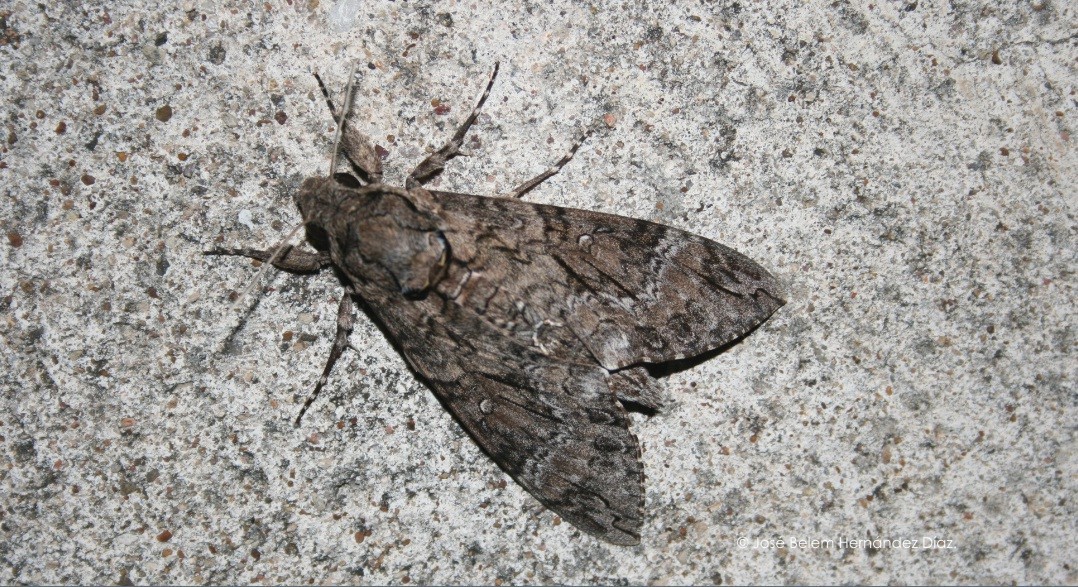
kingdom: Animalia
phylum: Arthropoda
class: Insecta
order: Lepidoptera
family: Sphingidae
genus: Agrius
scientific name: Agrius cingulata
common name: Pink-spotted hawkmoth
